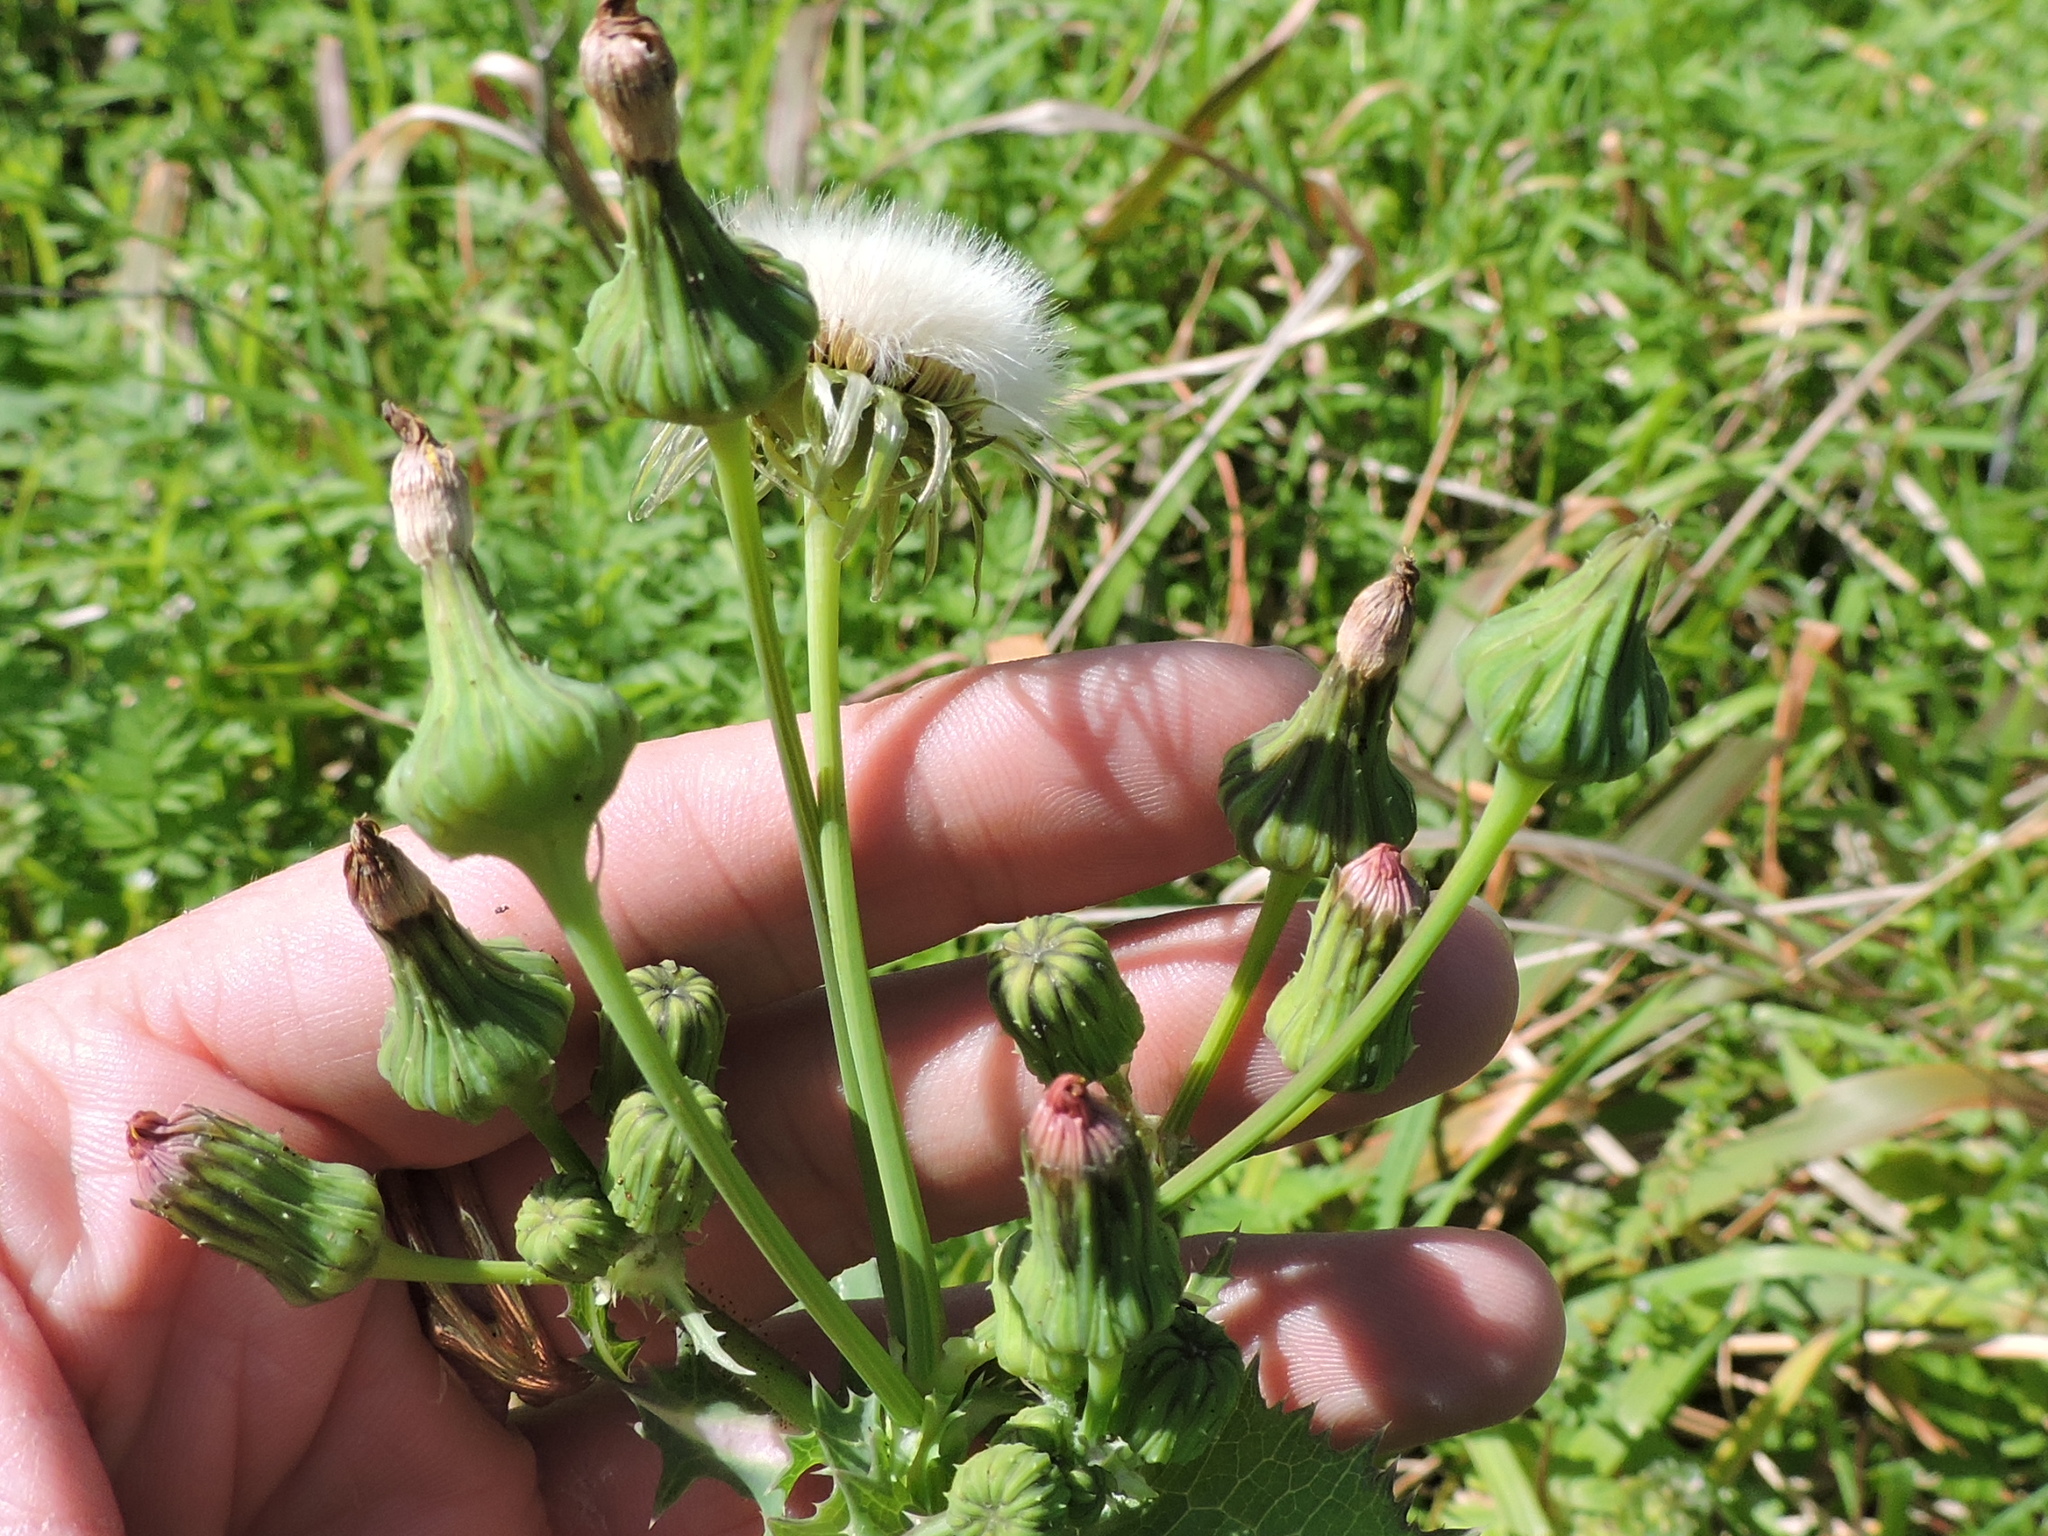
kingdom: Plantae
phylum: Tracheophyta
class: Magnoliopsida
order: Asterales
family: Asteraceae
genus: Sonchus
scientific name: Sonchus asper
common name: Prickly sow-thistle
